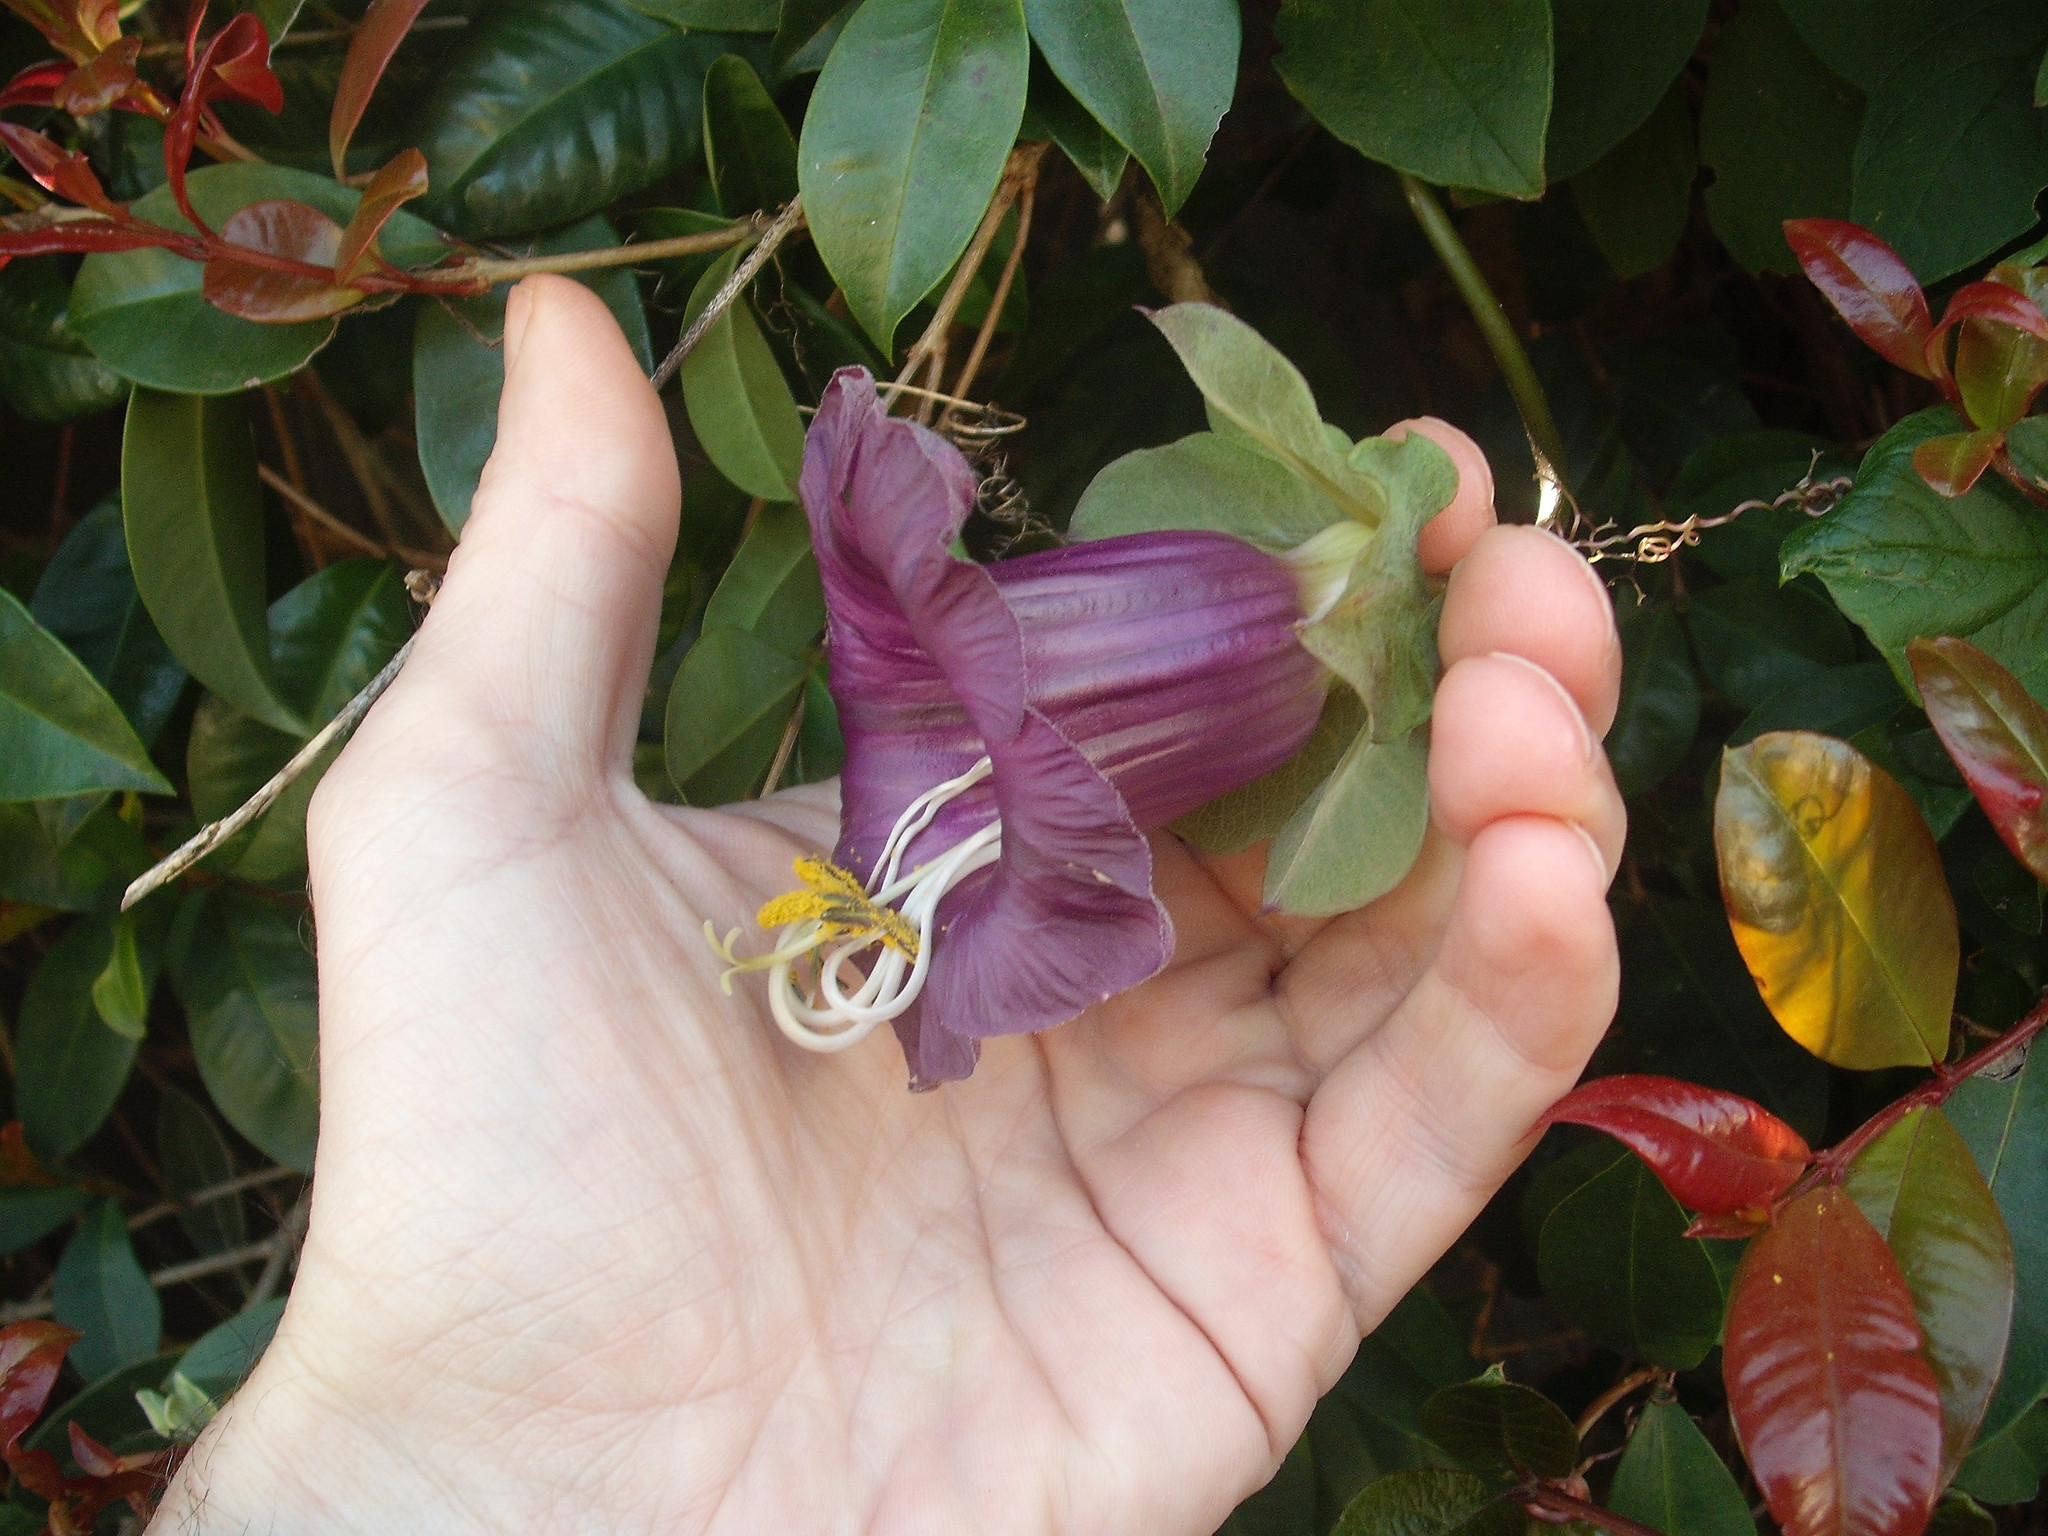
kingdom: Plantae
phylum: Tracheophyta
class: Magnoliopsida
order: Ericales
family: Polemoniaceae
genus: Cobaea
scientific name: Cobaea scandens
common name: Cup-and-saucer-vine
